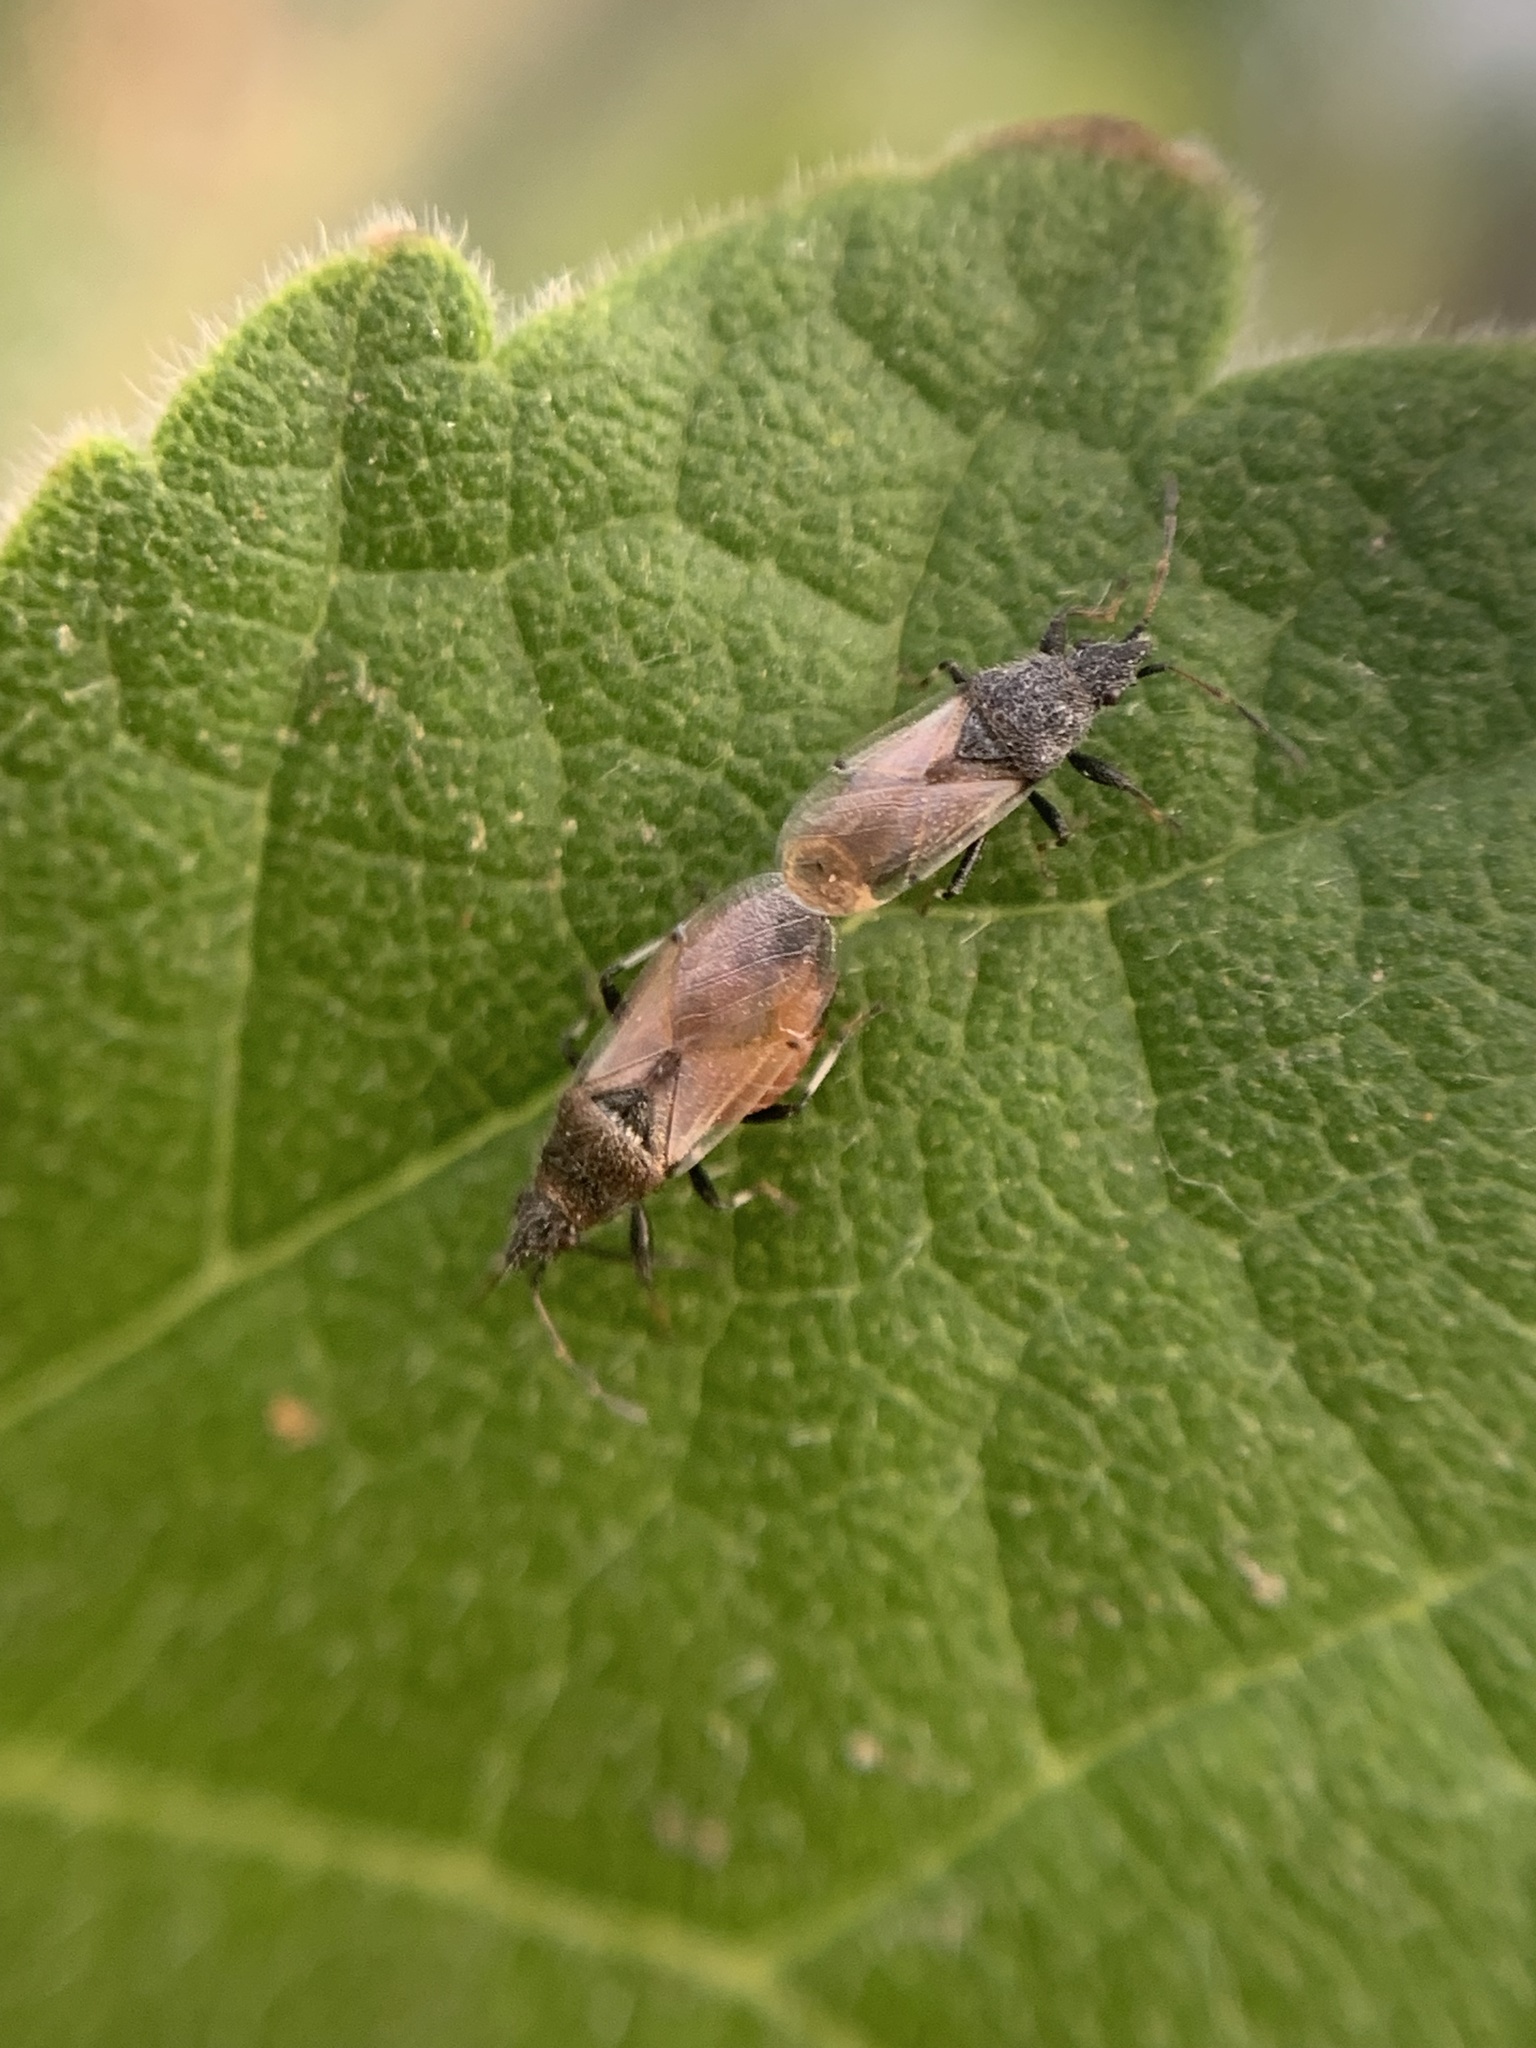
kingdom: Animalia
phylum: Arthropoda
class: Insecta
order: Hemiptera
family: Oxycarenidae
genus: Oxycarenus
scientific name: Oxycarenus hyalinipennis
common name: Cotton seed bug
